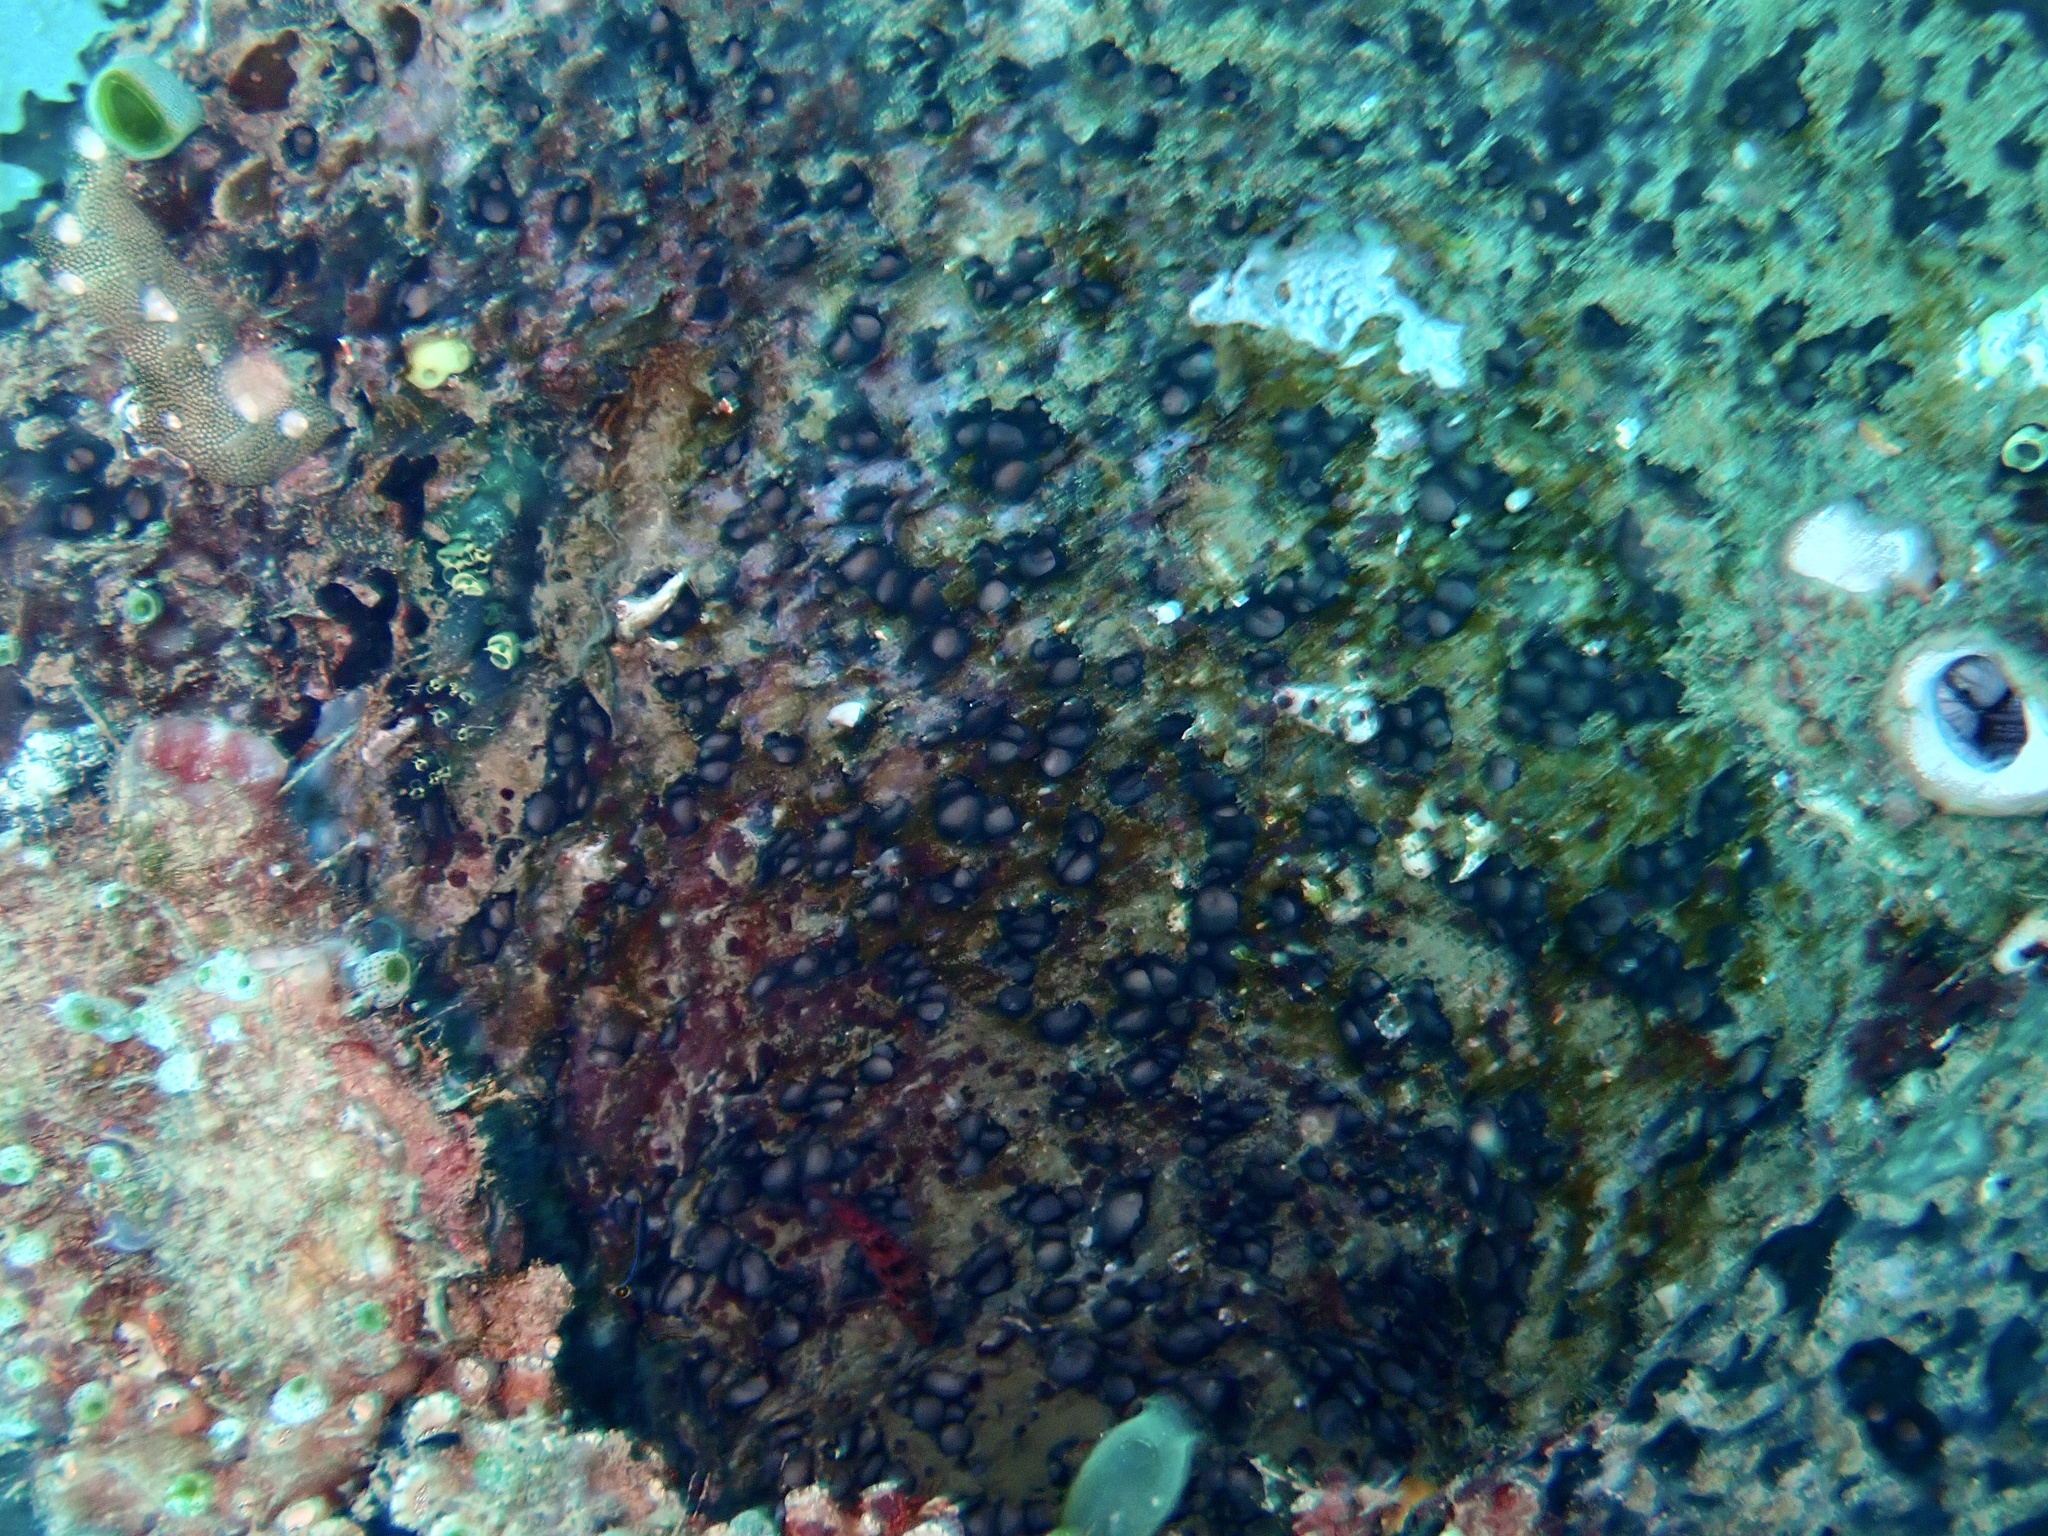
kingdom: Animalia
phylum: Porifera
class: Demospongiae
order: Dictyoceratida
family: Irciniidae
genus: Ircinia
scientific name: Ircinia colossa
